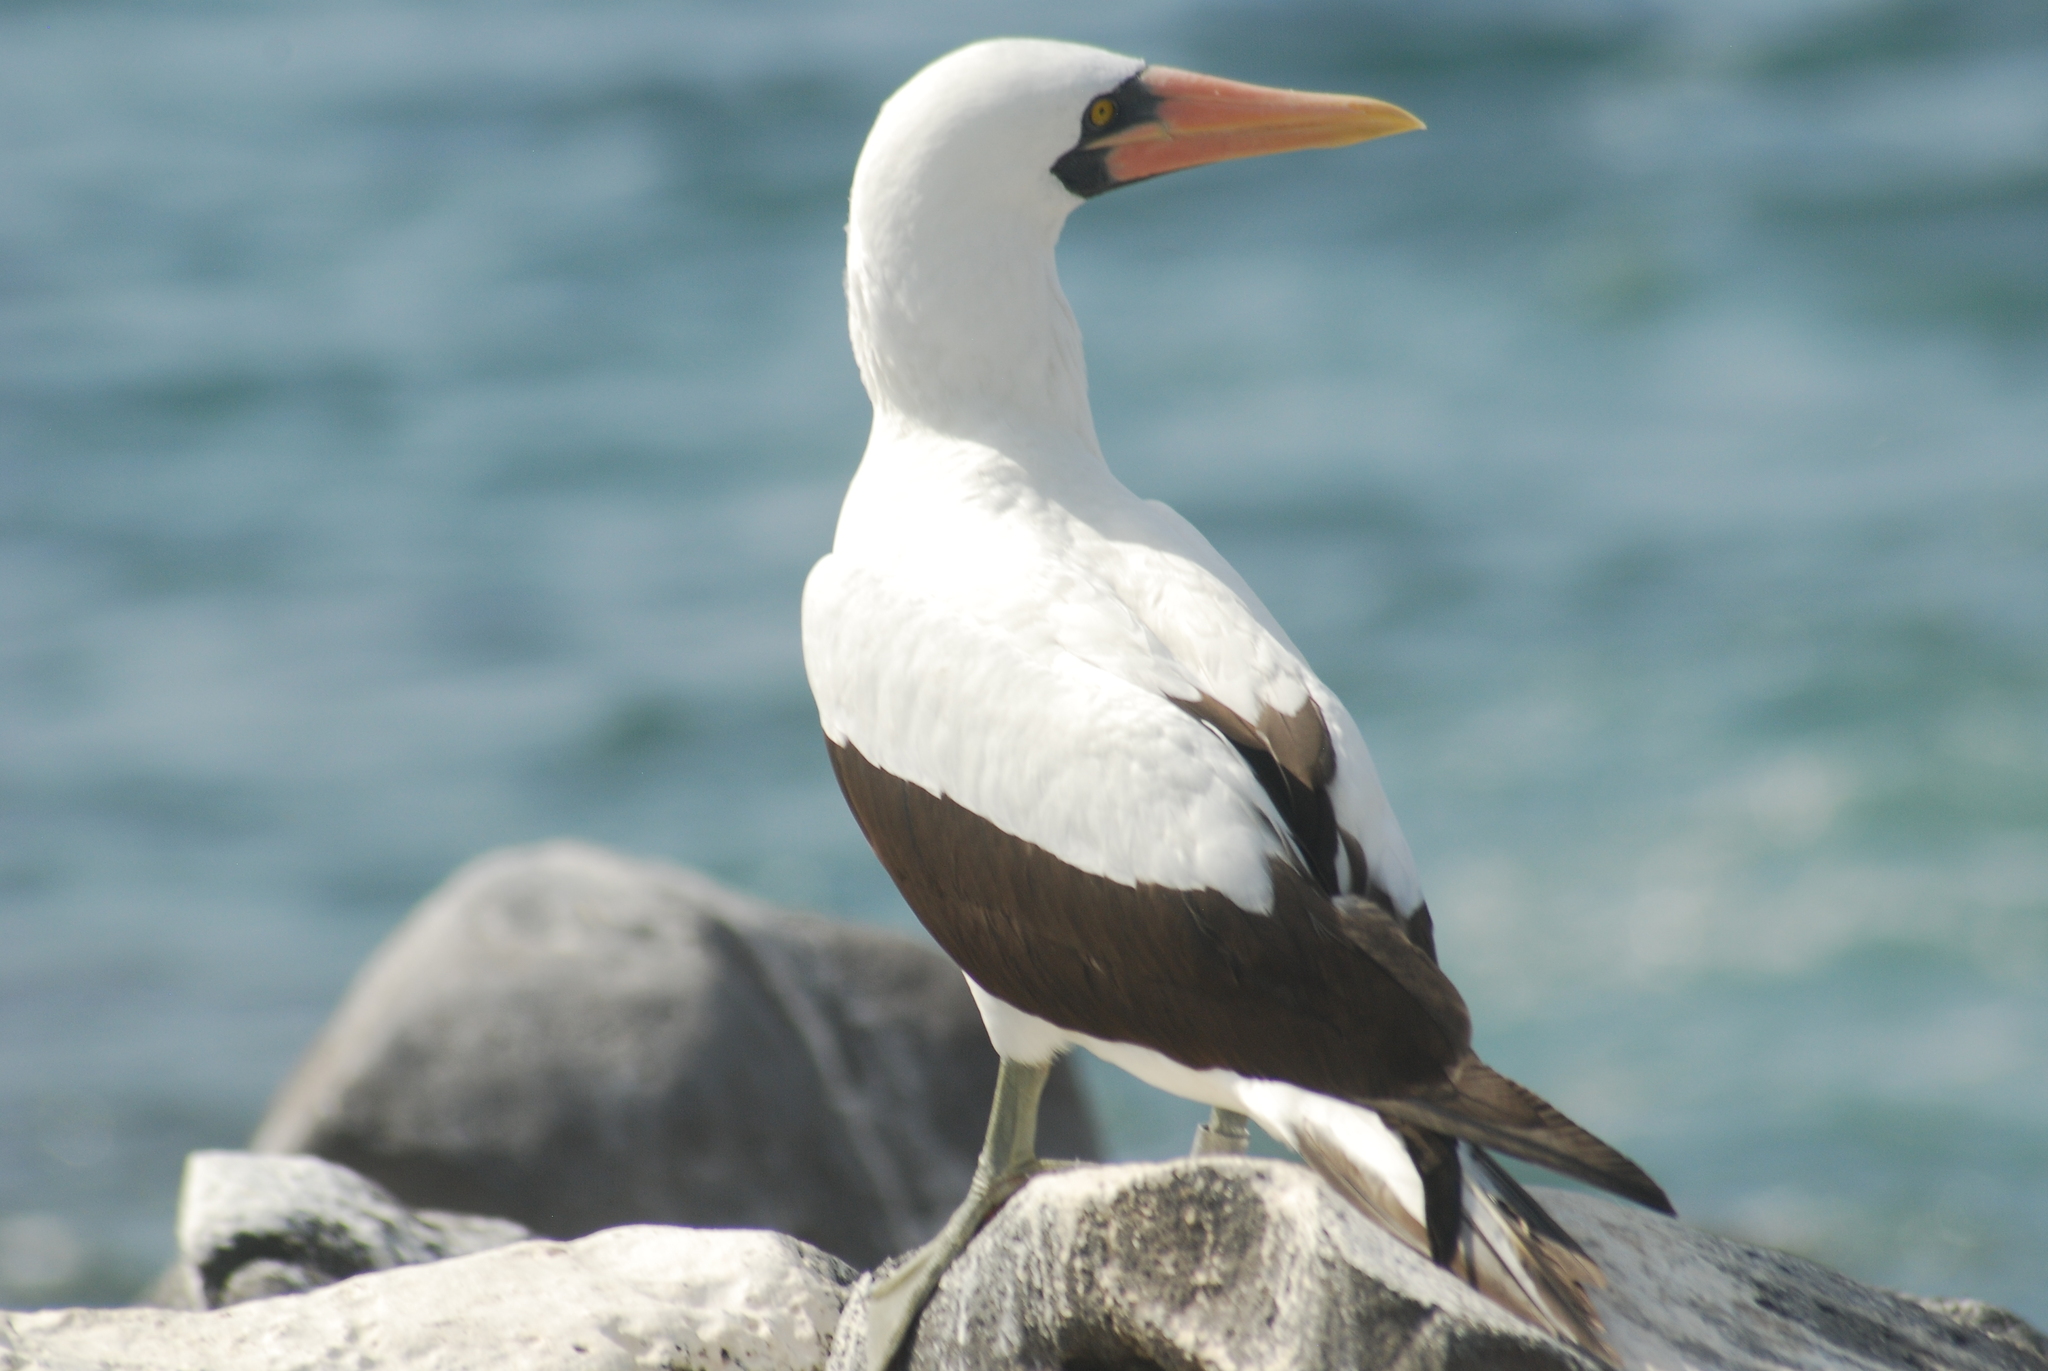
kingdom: Animalia
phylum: Chordata
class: Aves
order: Suliformes
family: Sulidae
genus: Sula
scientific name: Sula granti
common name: Nazca booby
